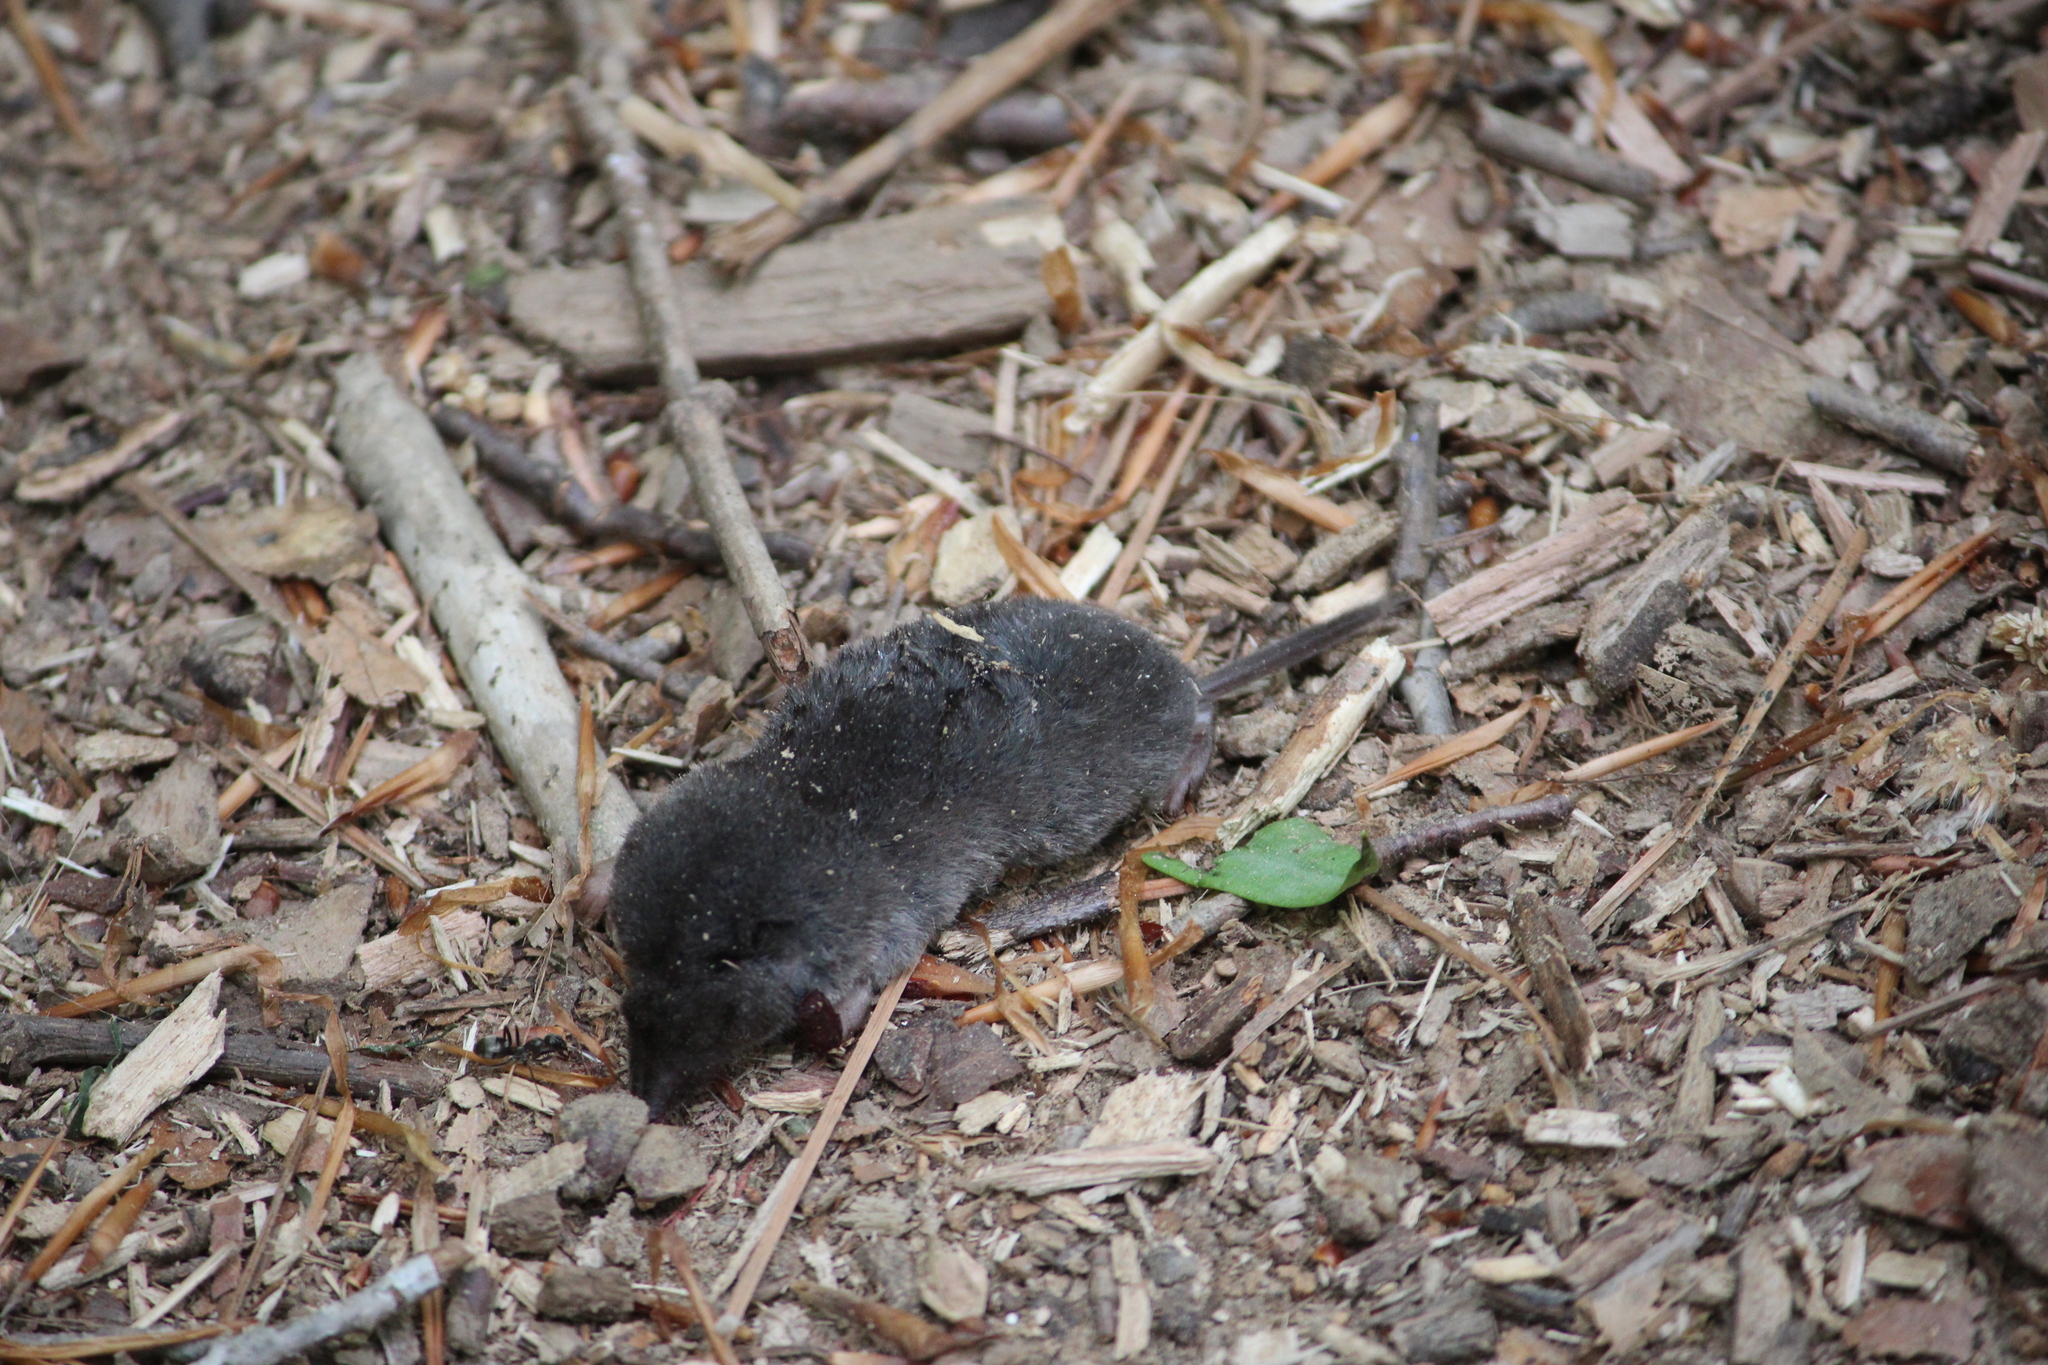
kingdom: Animalia
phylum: Chordata
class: Mammalia
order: Soricomorpha
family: Soricidae
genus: Blarina
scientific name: Blarina carolinensis
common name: Southern short-tailed shrew
